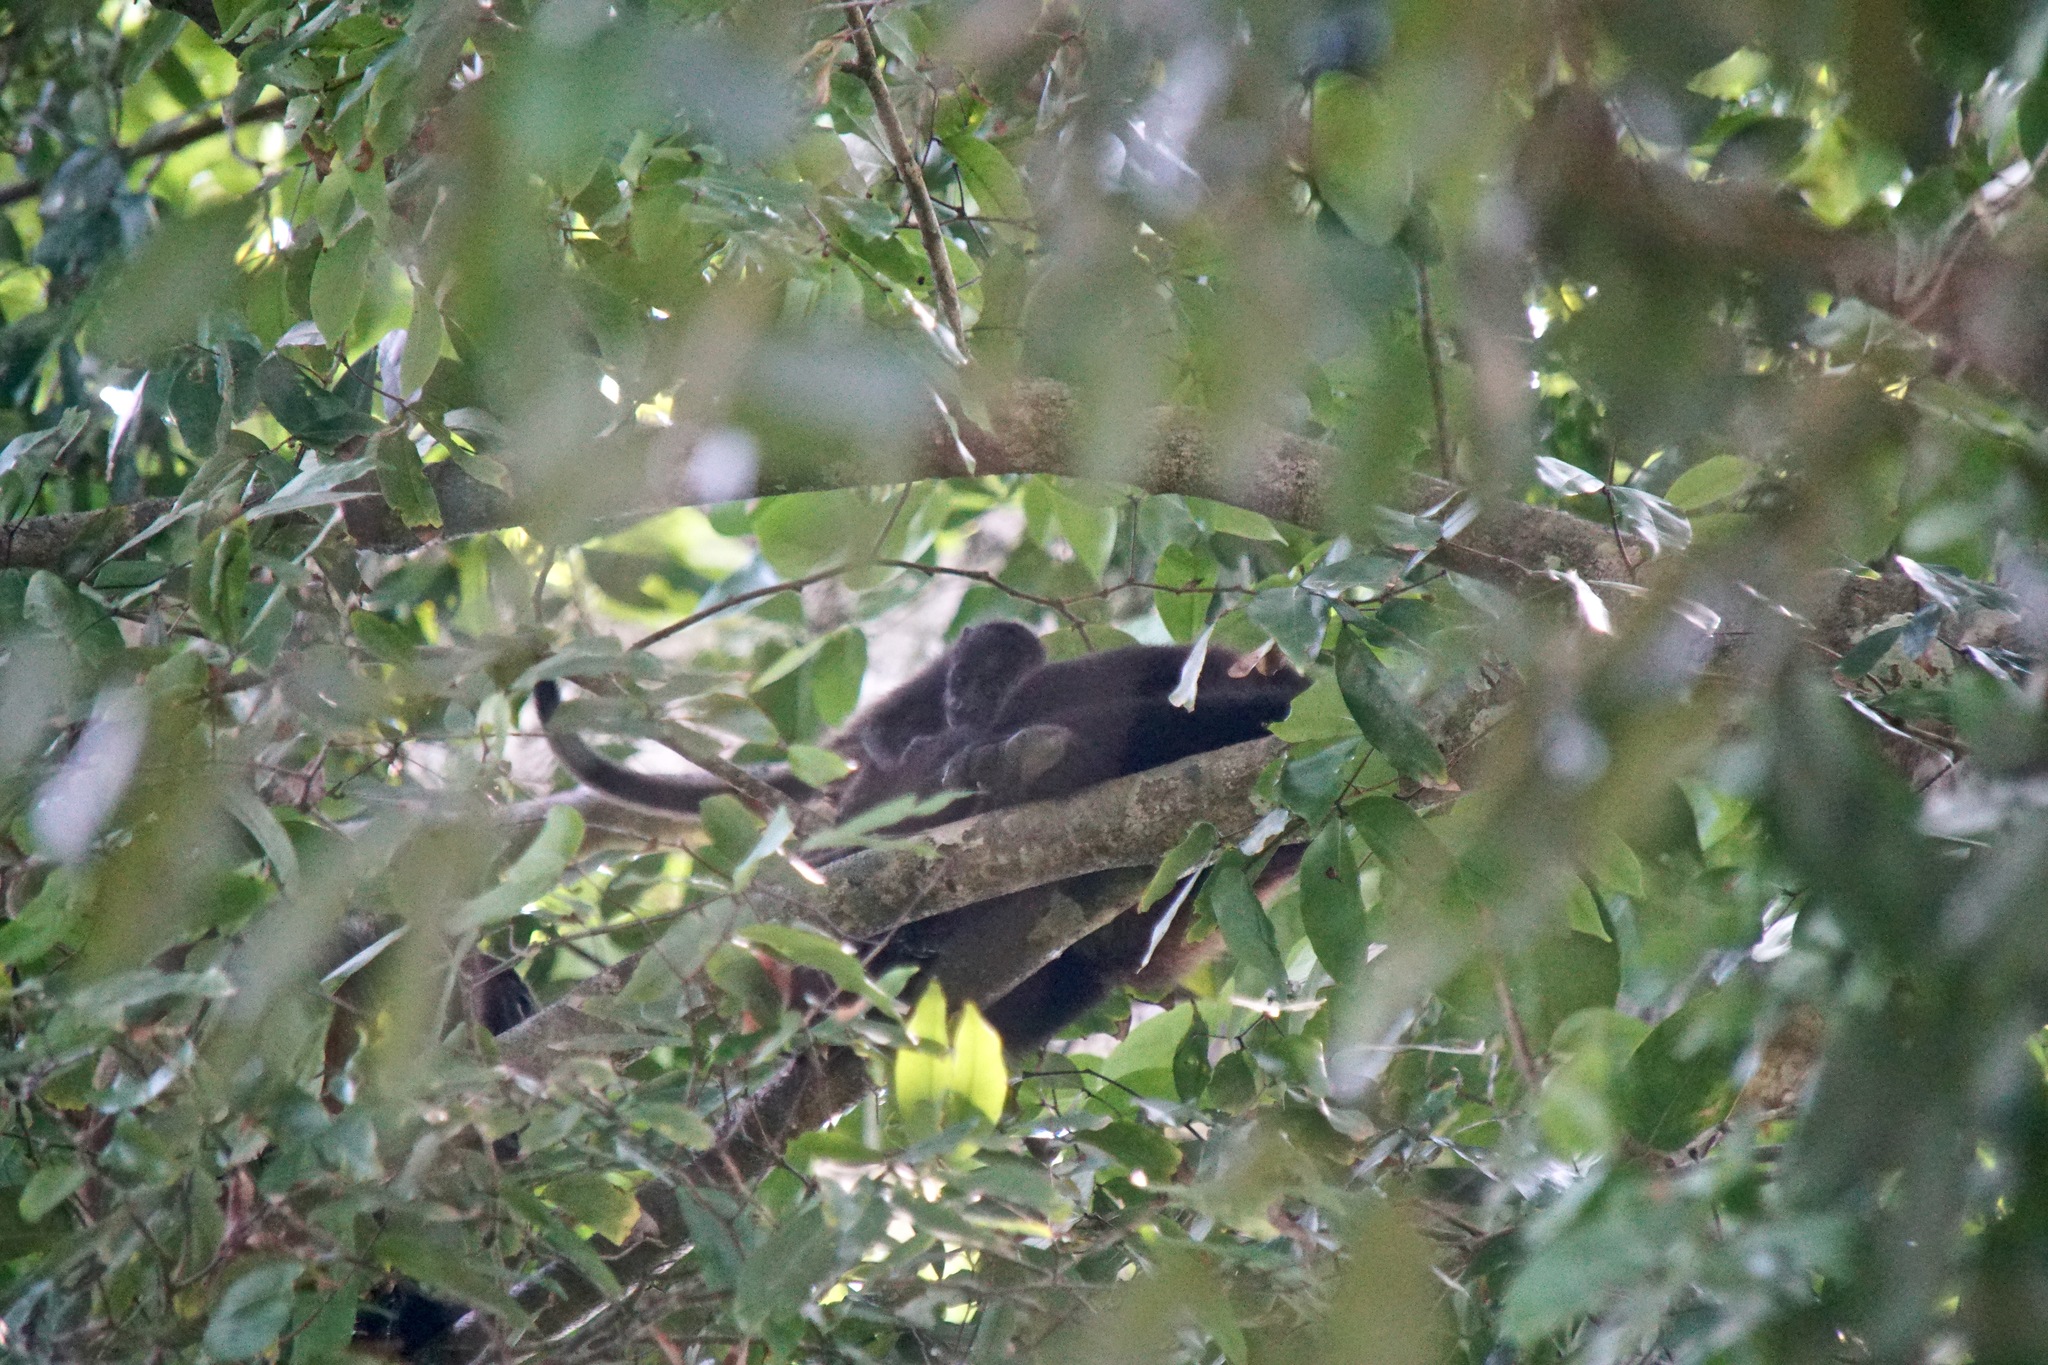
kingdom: Animalia
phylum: Chordata
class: Mammalia
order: Primates
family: Atelidae
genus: Alouatta
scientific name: Alouatta palliata
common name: Mantled howler
